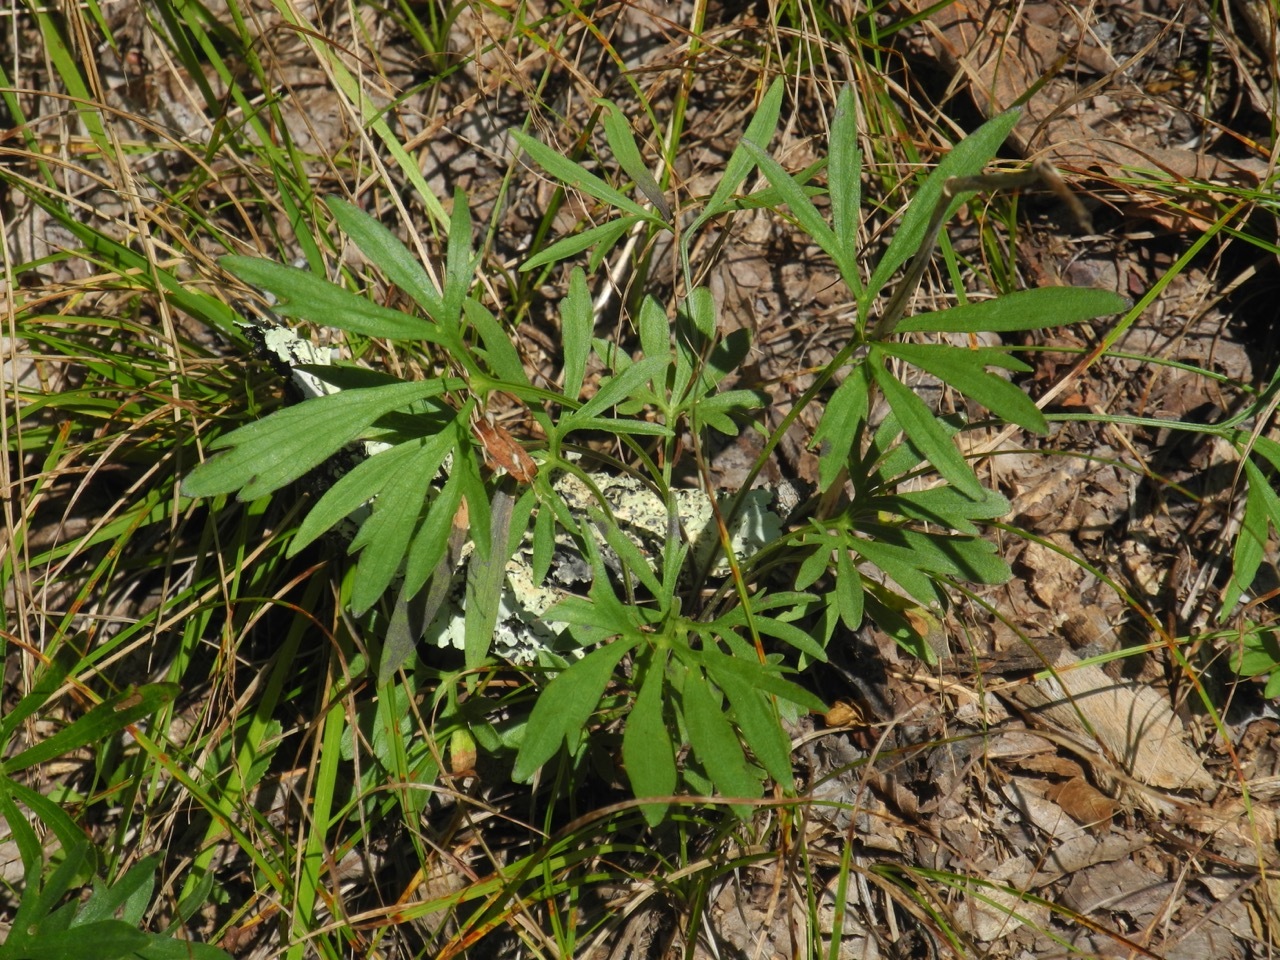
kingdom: Plantae
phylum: Tracheophyta
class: Magnoliopsida
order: Malpighiales
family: Violaceae
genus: Viola
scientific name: Viola pedata
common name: Pansy violet
